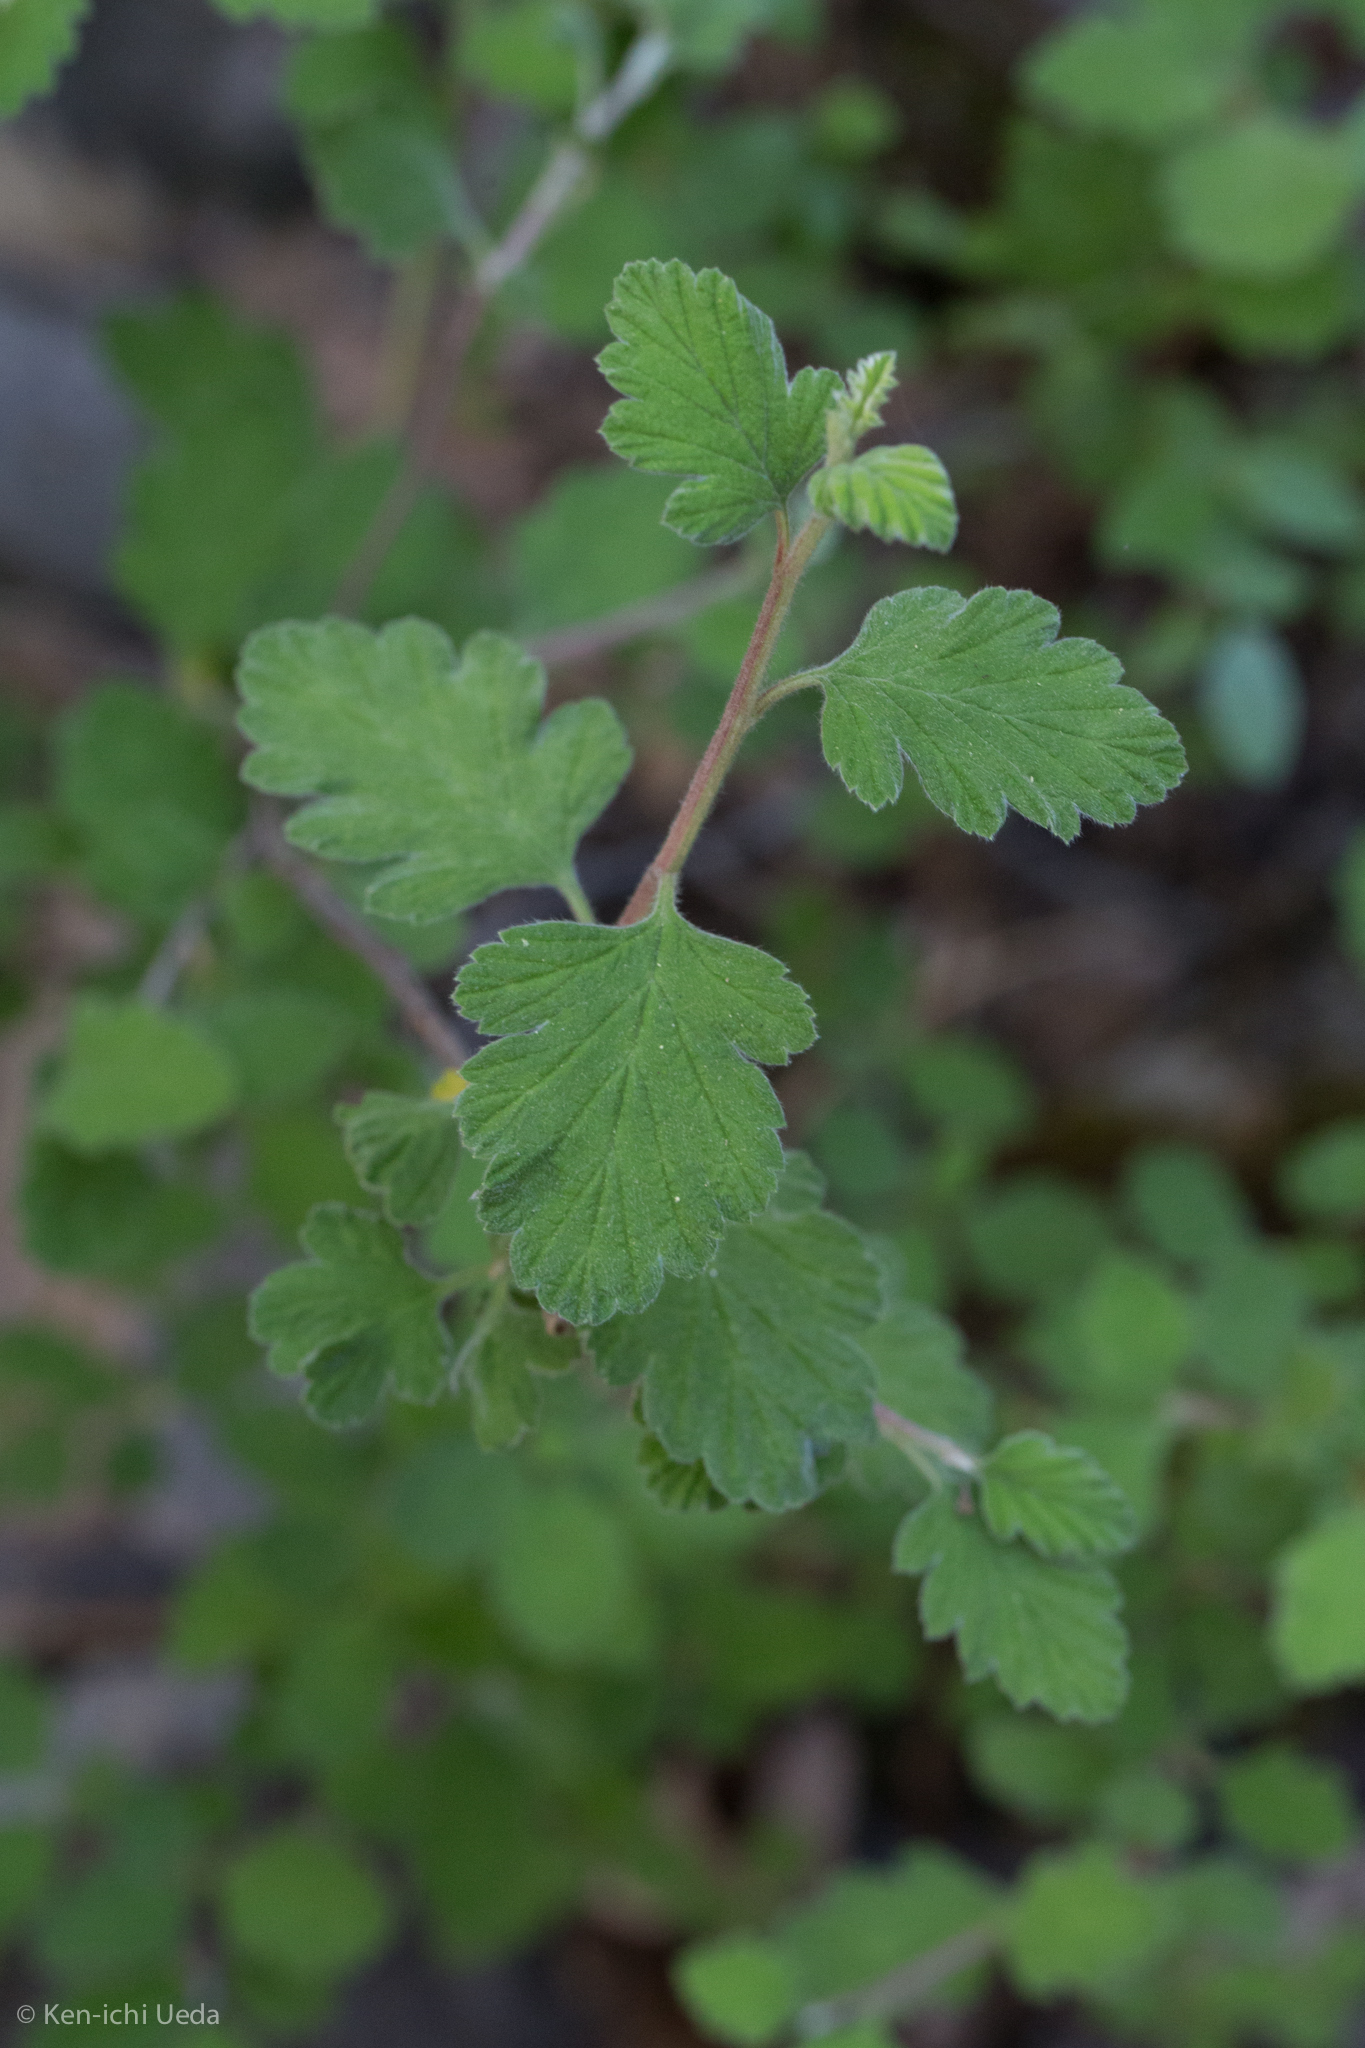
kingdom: Plantae
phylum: Tracheophyta
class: Magnoliopsida
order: Rosales
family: Rosaceae
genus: Holodiscus
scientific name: Holodiscus discolor
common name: Oceanspray
